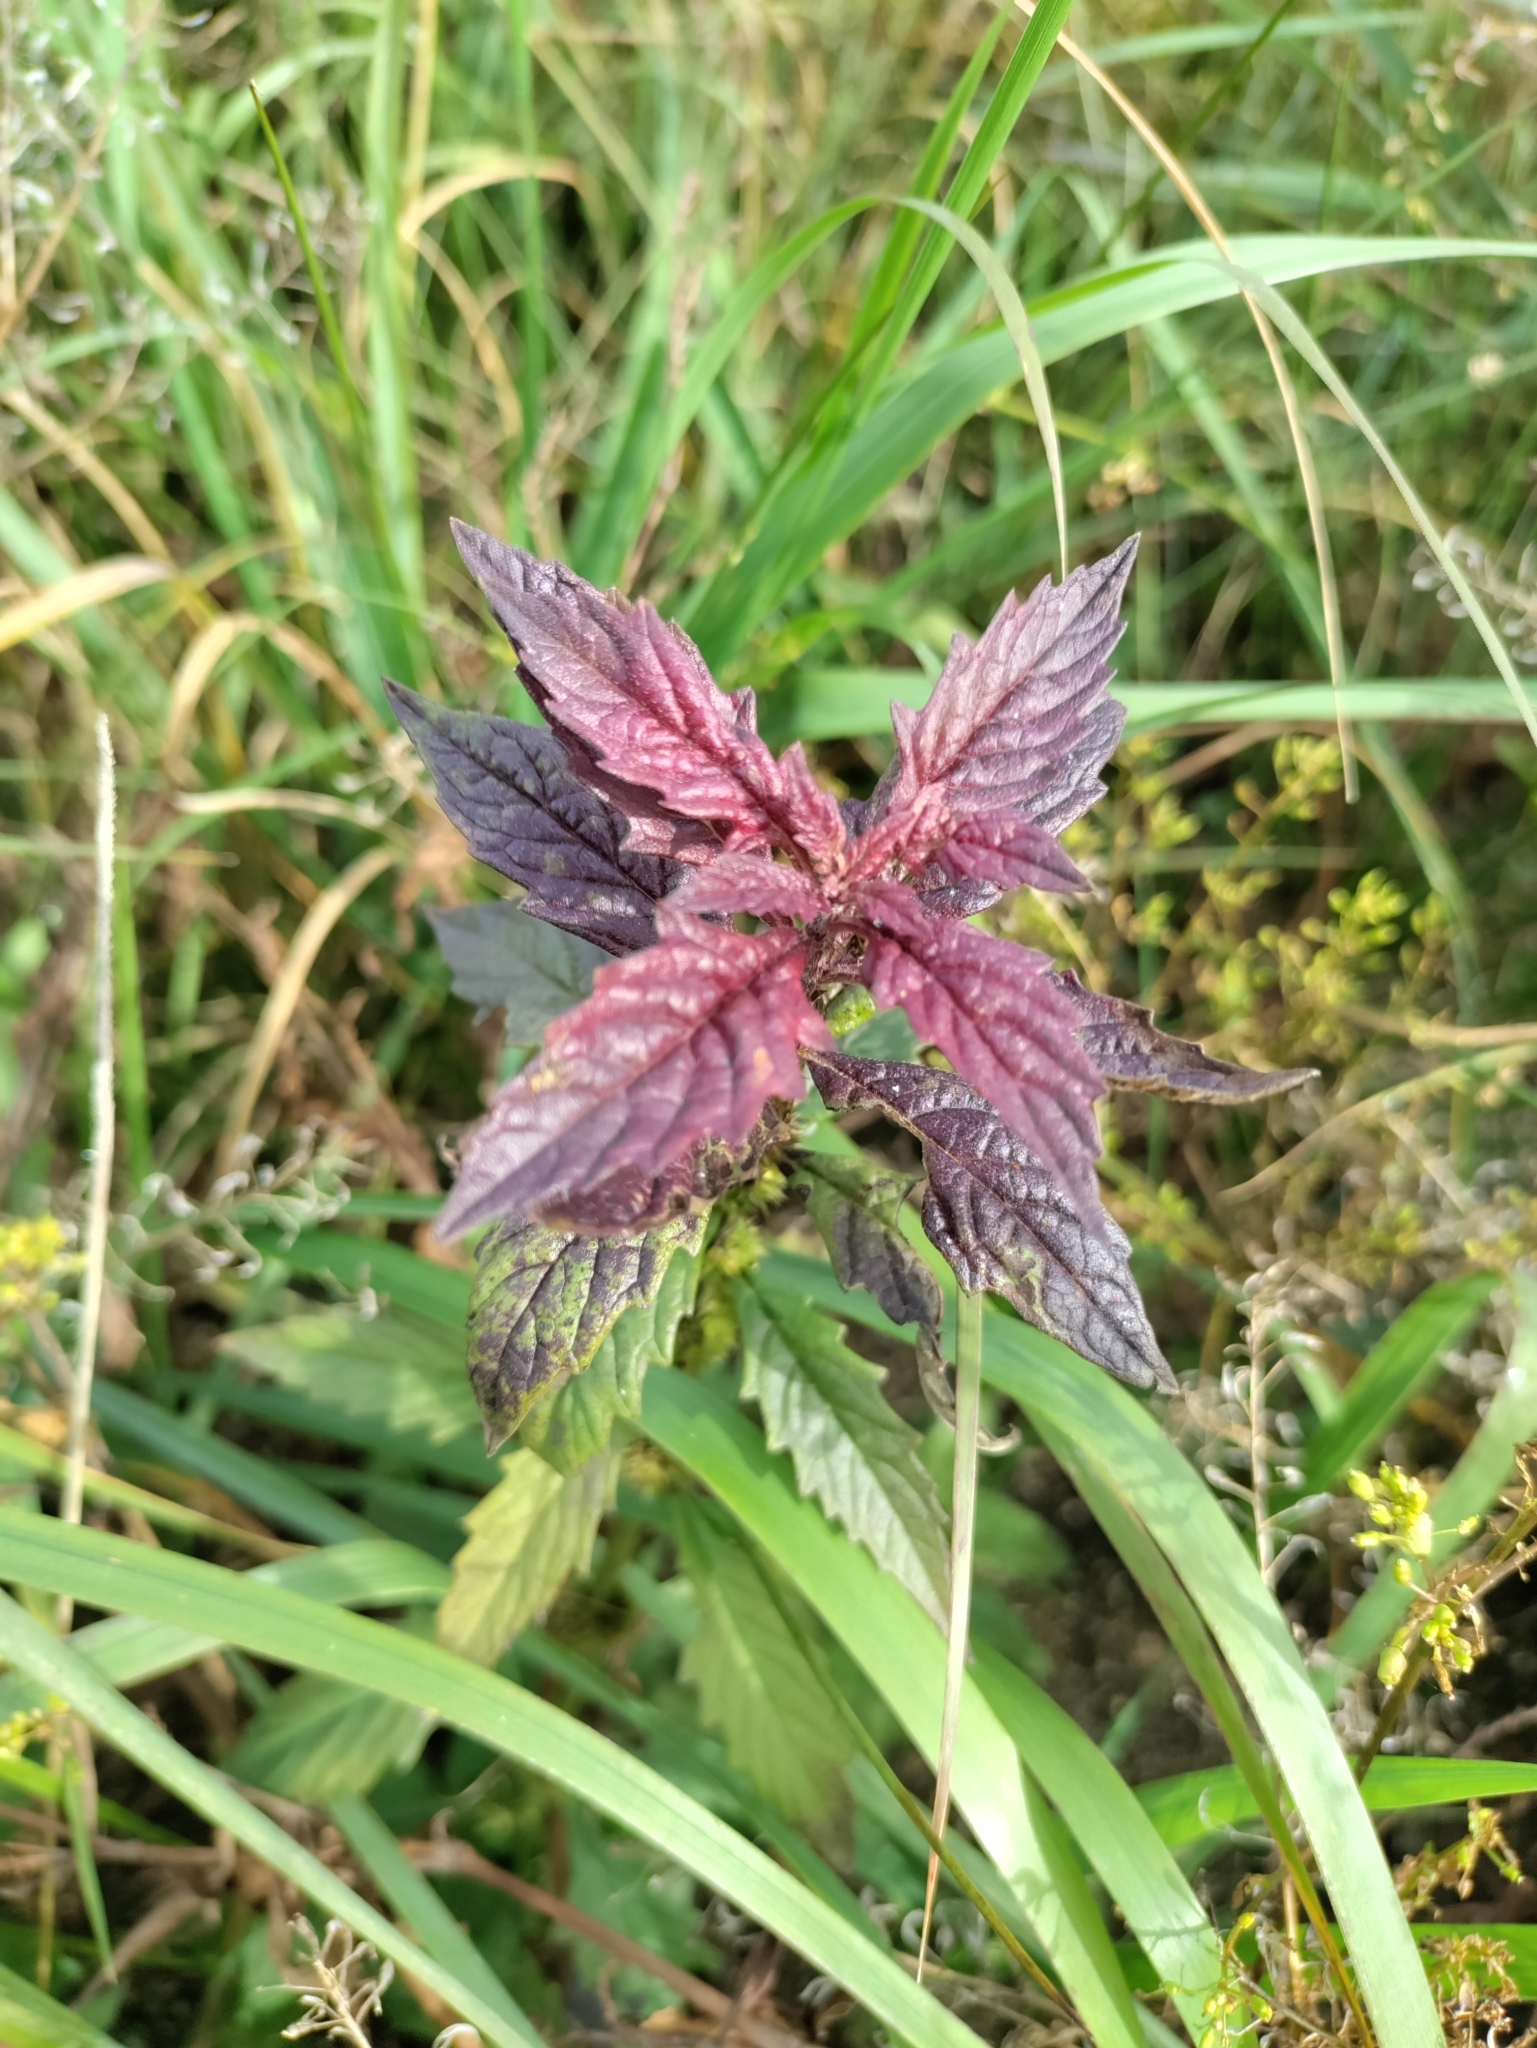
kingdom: Plantae
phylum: Tracheophyta
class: Magnoliopsida
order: Lamiales
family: Lamiaceae
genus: Lycopus
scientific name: Lycopus europaeus
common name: European bugleweed
